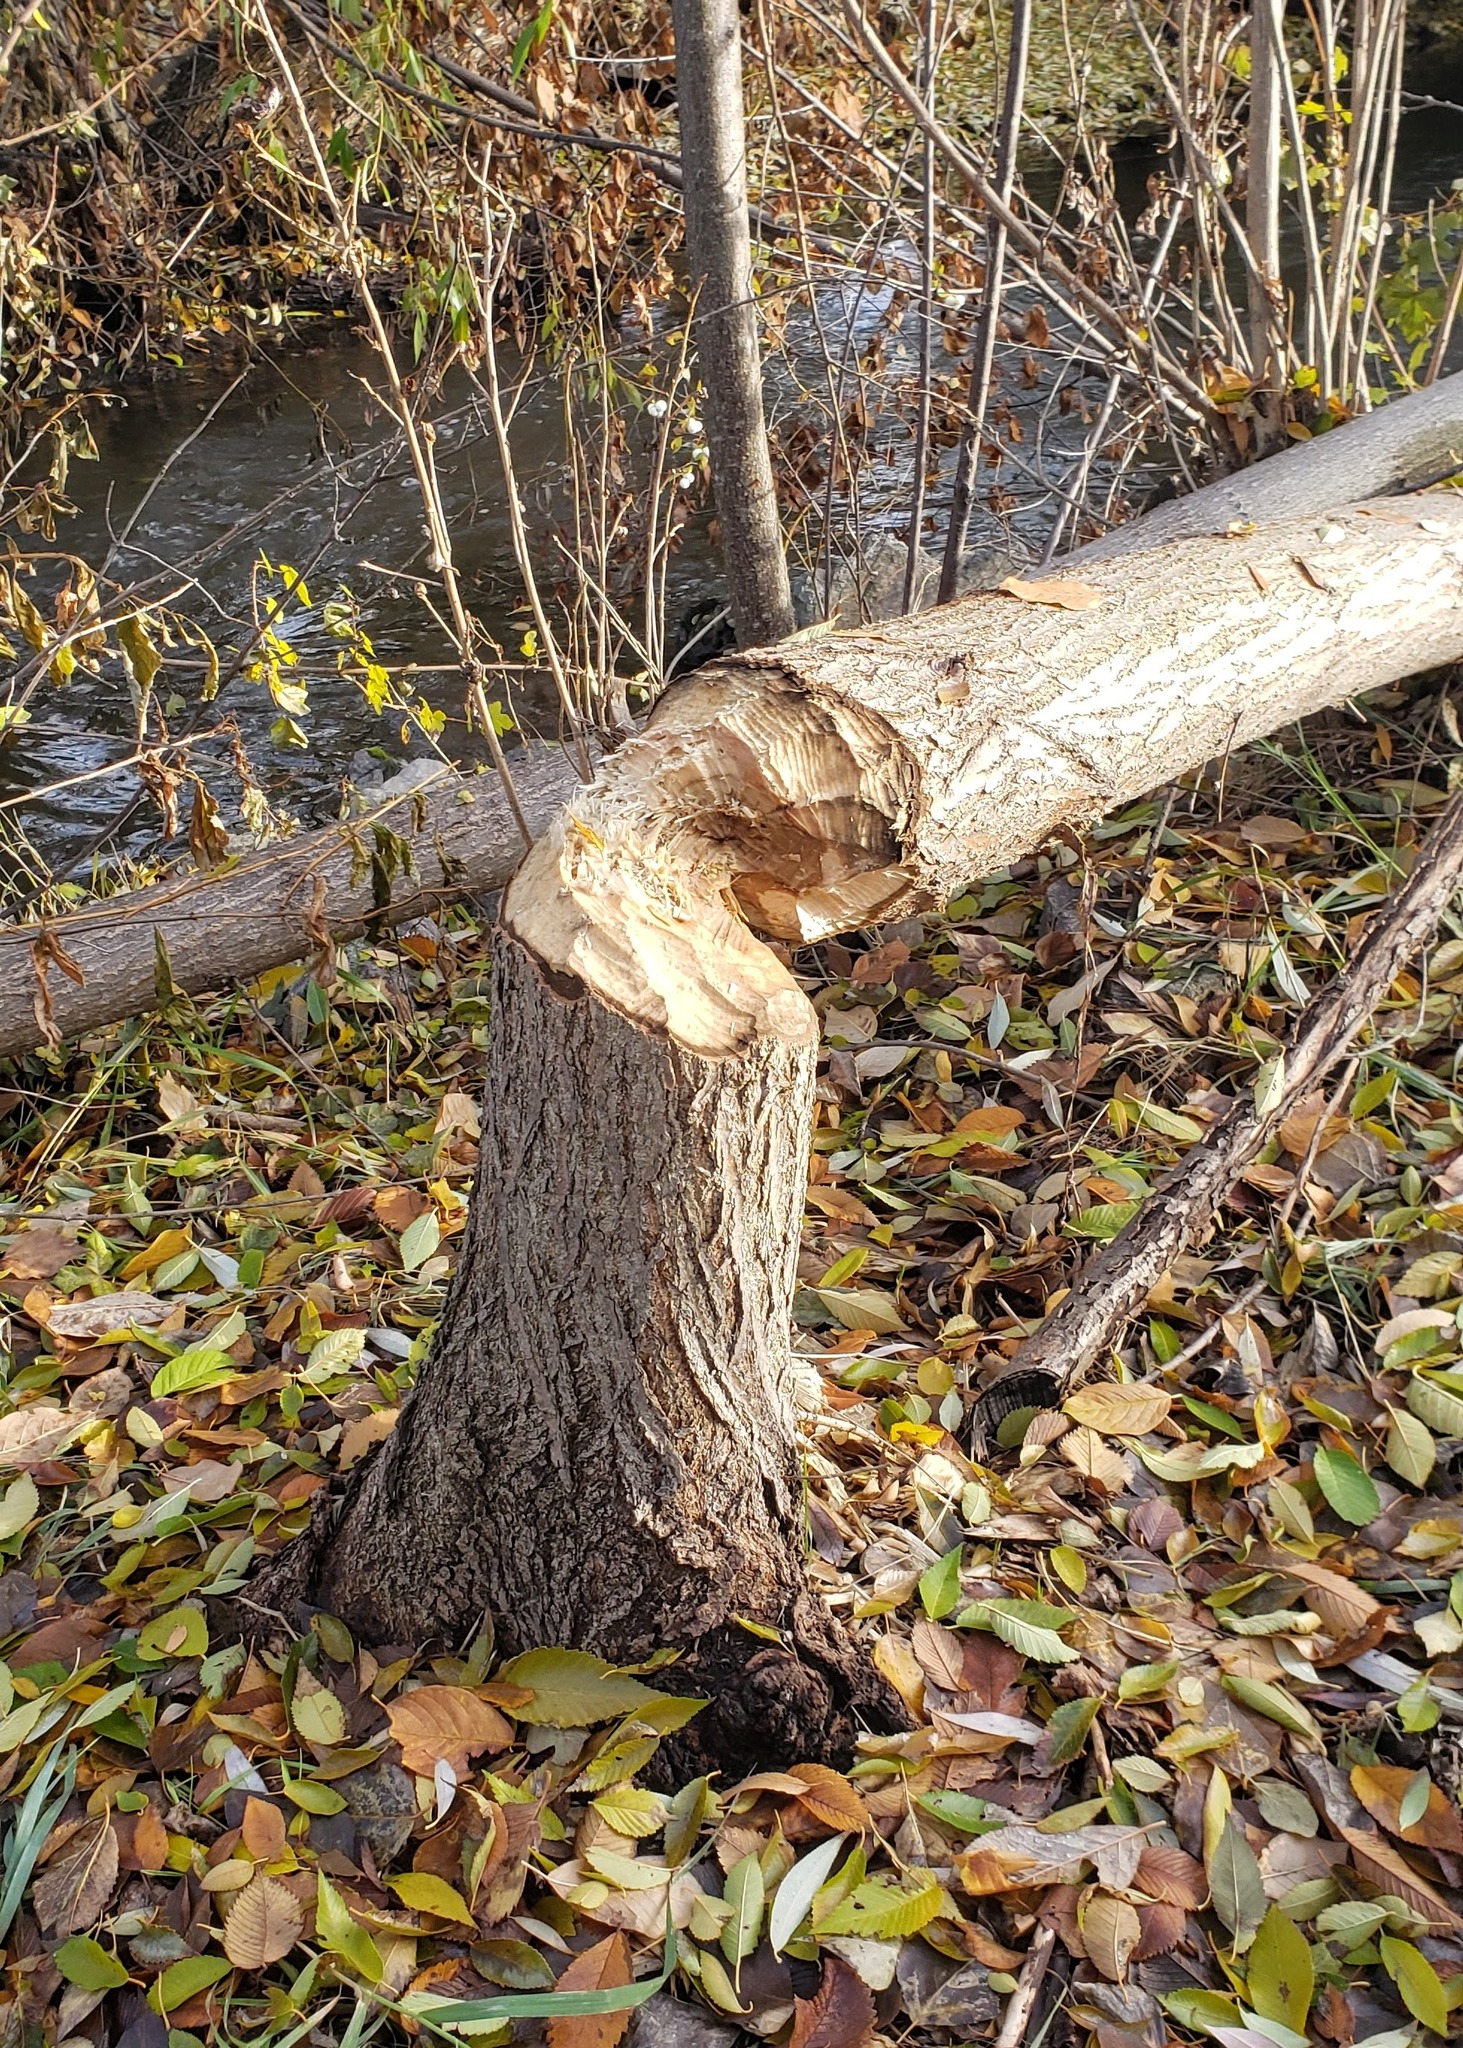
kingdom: Animalia
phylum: Chordata
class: Mammalia
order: Rodentia
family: Castoridae
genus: Castor
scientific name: Castor canadensis
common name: American beaver
